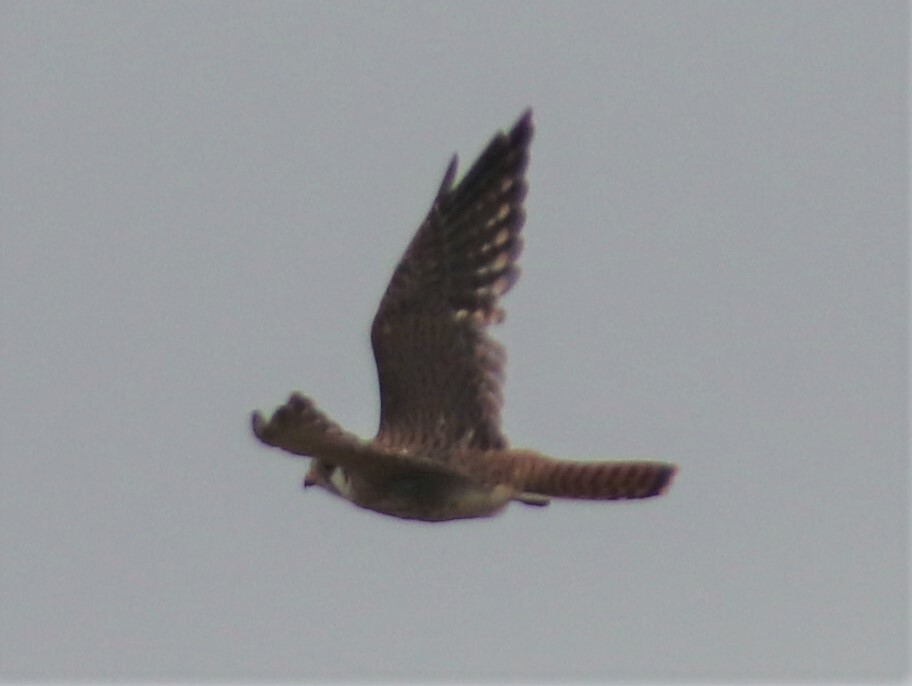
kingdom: Animalia
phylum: Chordata
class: Aves
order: Falconiformes
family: Falconidae
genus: Falco
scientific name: Falco sparverius
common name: American kestrel
